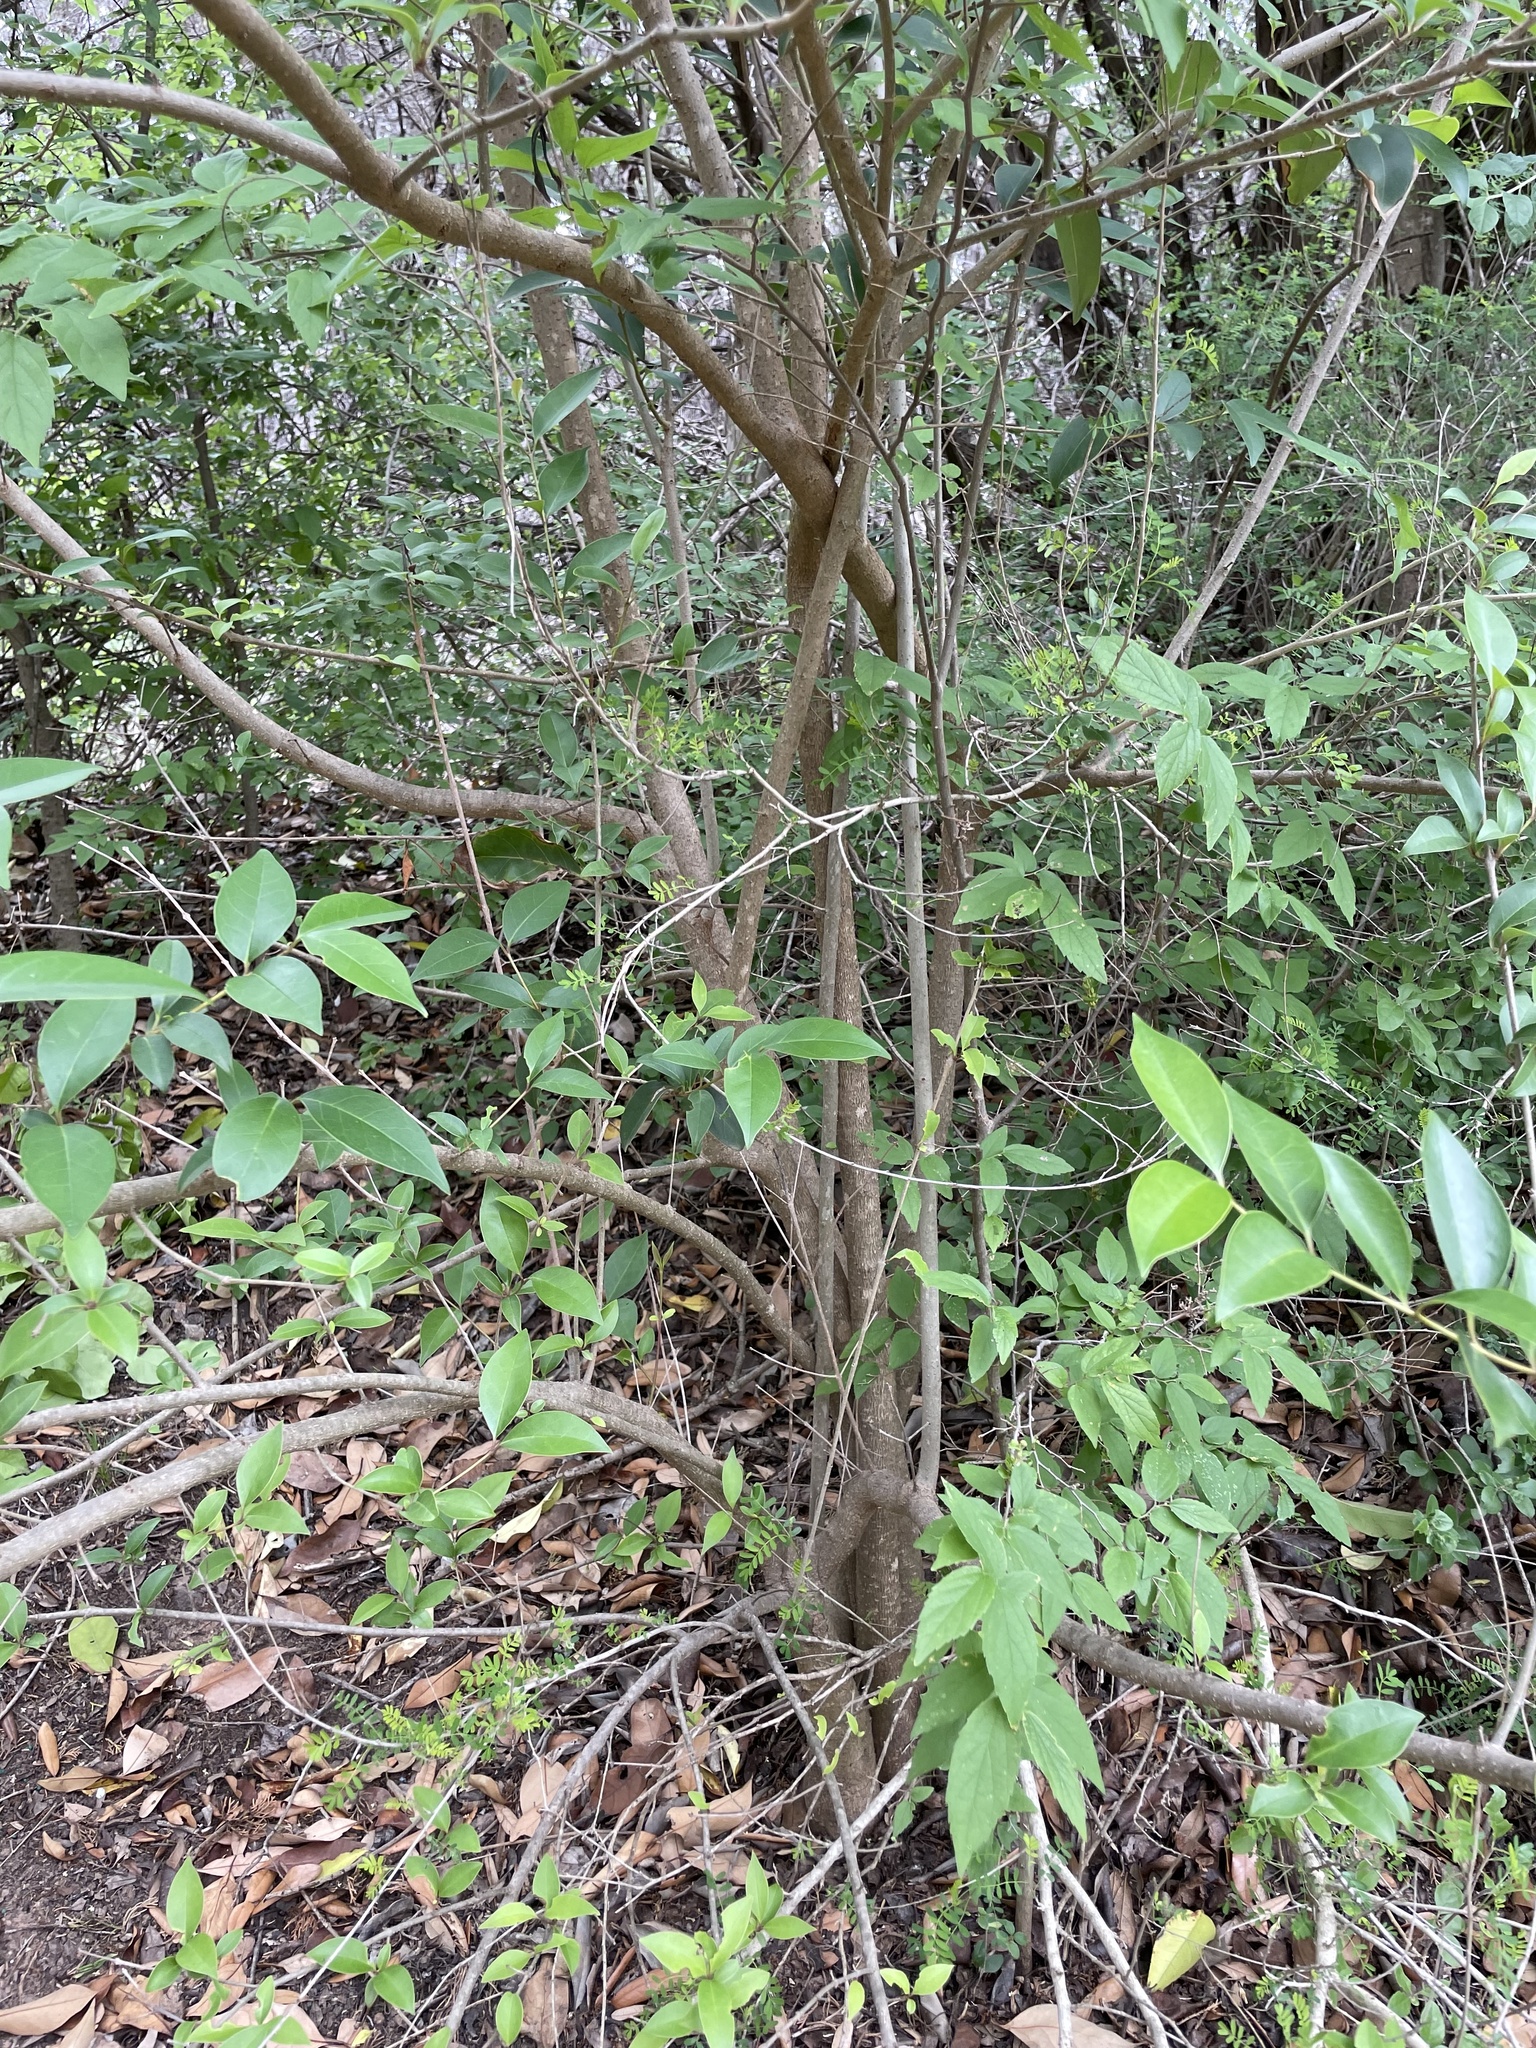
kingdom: Plantae
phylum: Tracheophyta
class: Magnoliopsida
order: Lamiales
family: Oleaceae
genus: Ligustrum
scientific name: Ligustrum lucidum
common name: Glossy privet
